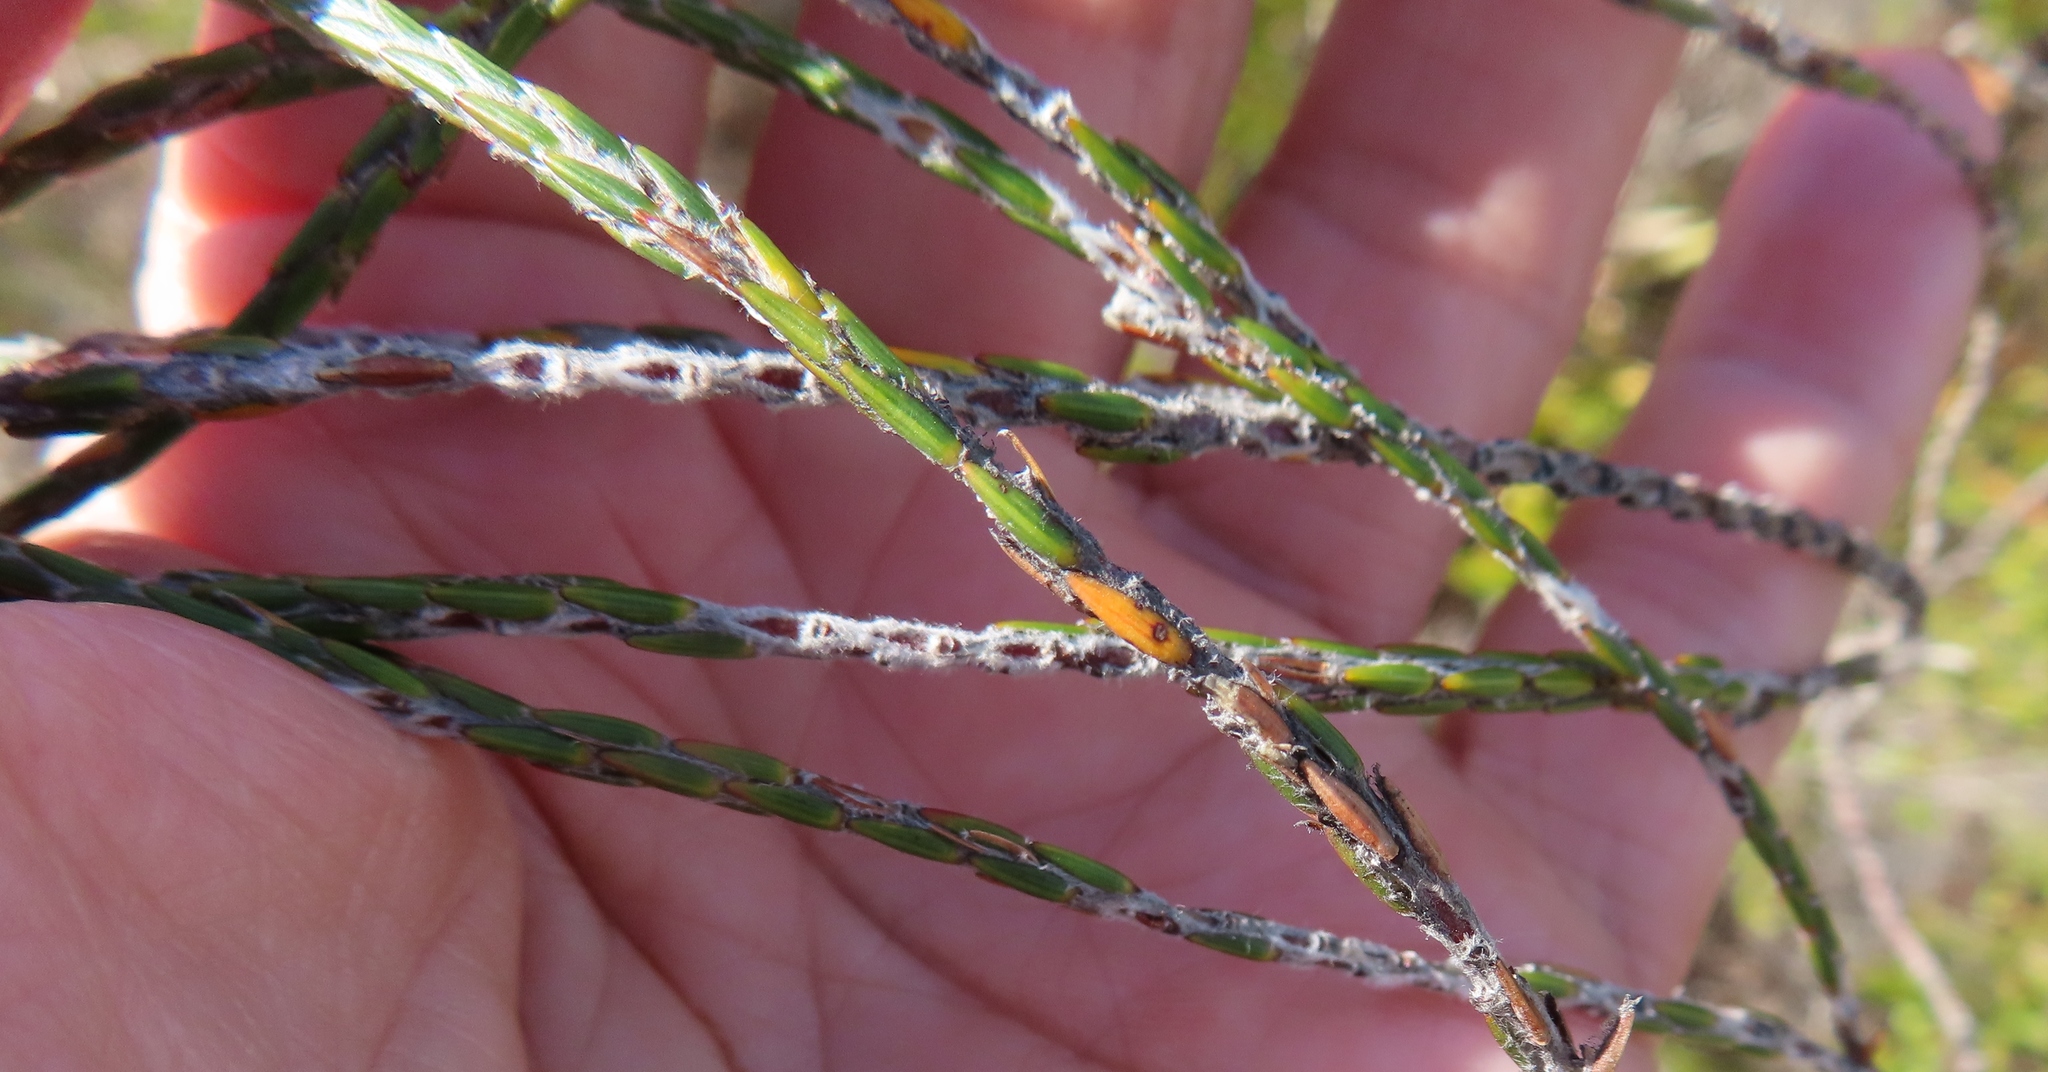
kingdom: Plantae
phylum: Tracheophyta
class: Magnoliopsida
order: Malvales
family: Thymelaeaceae
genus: Struthiola
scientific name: Struthiola ciliata
